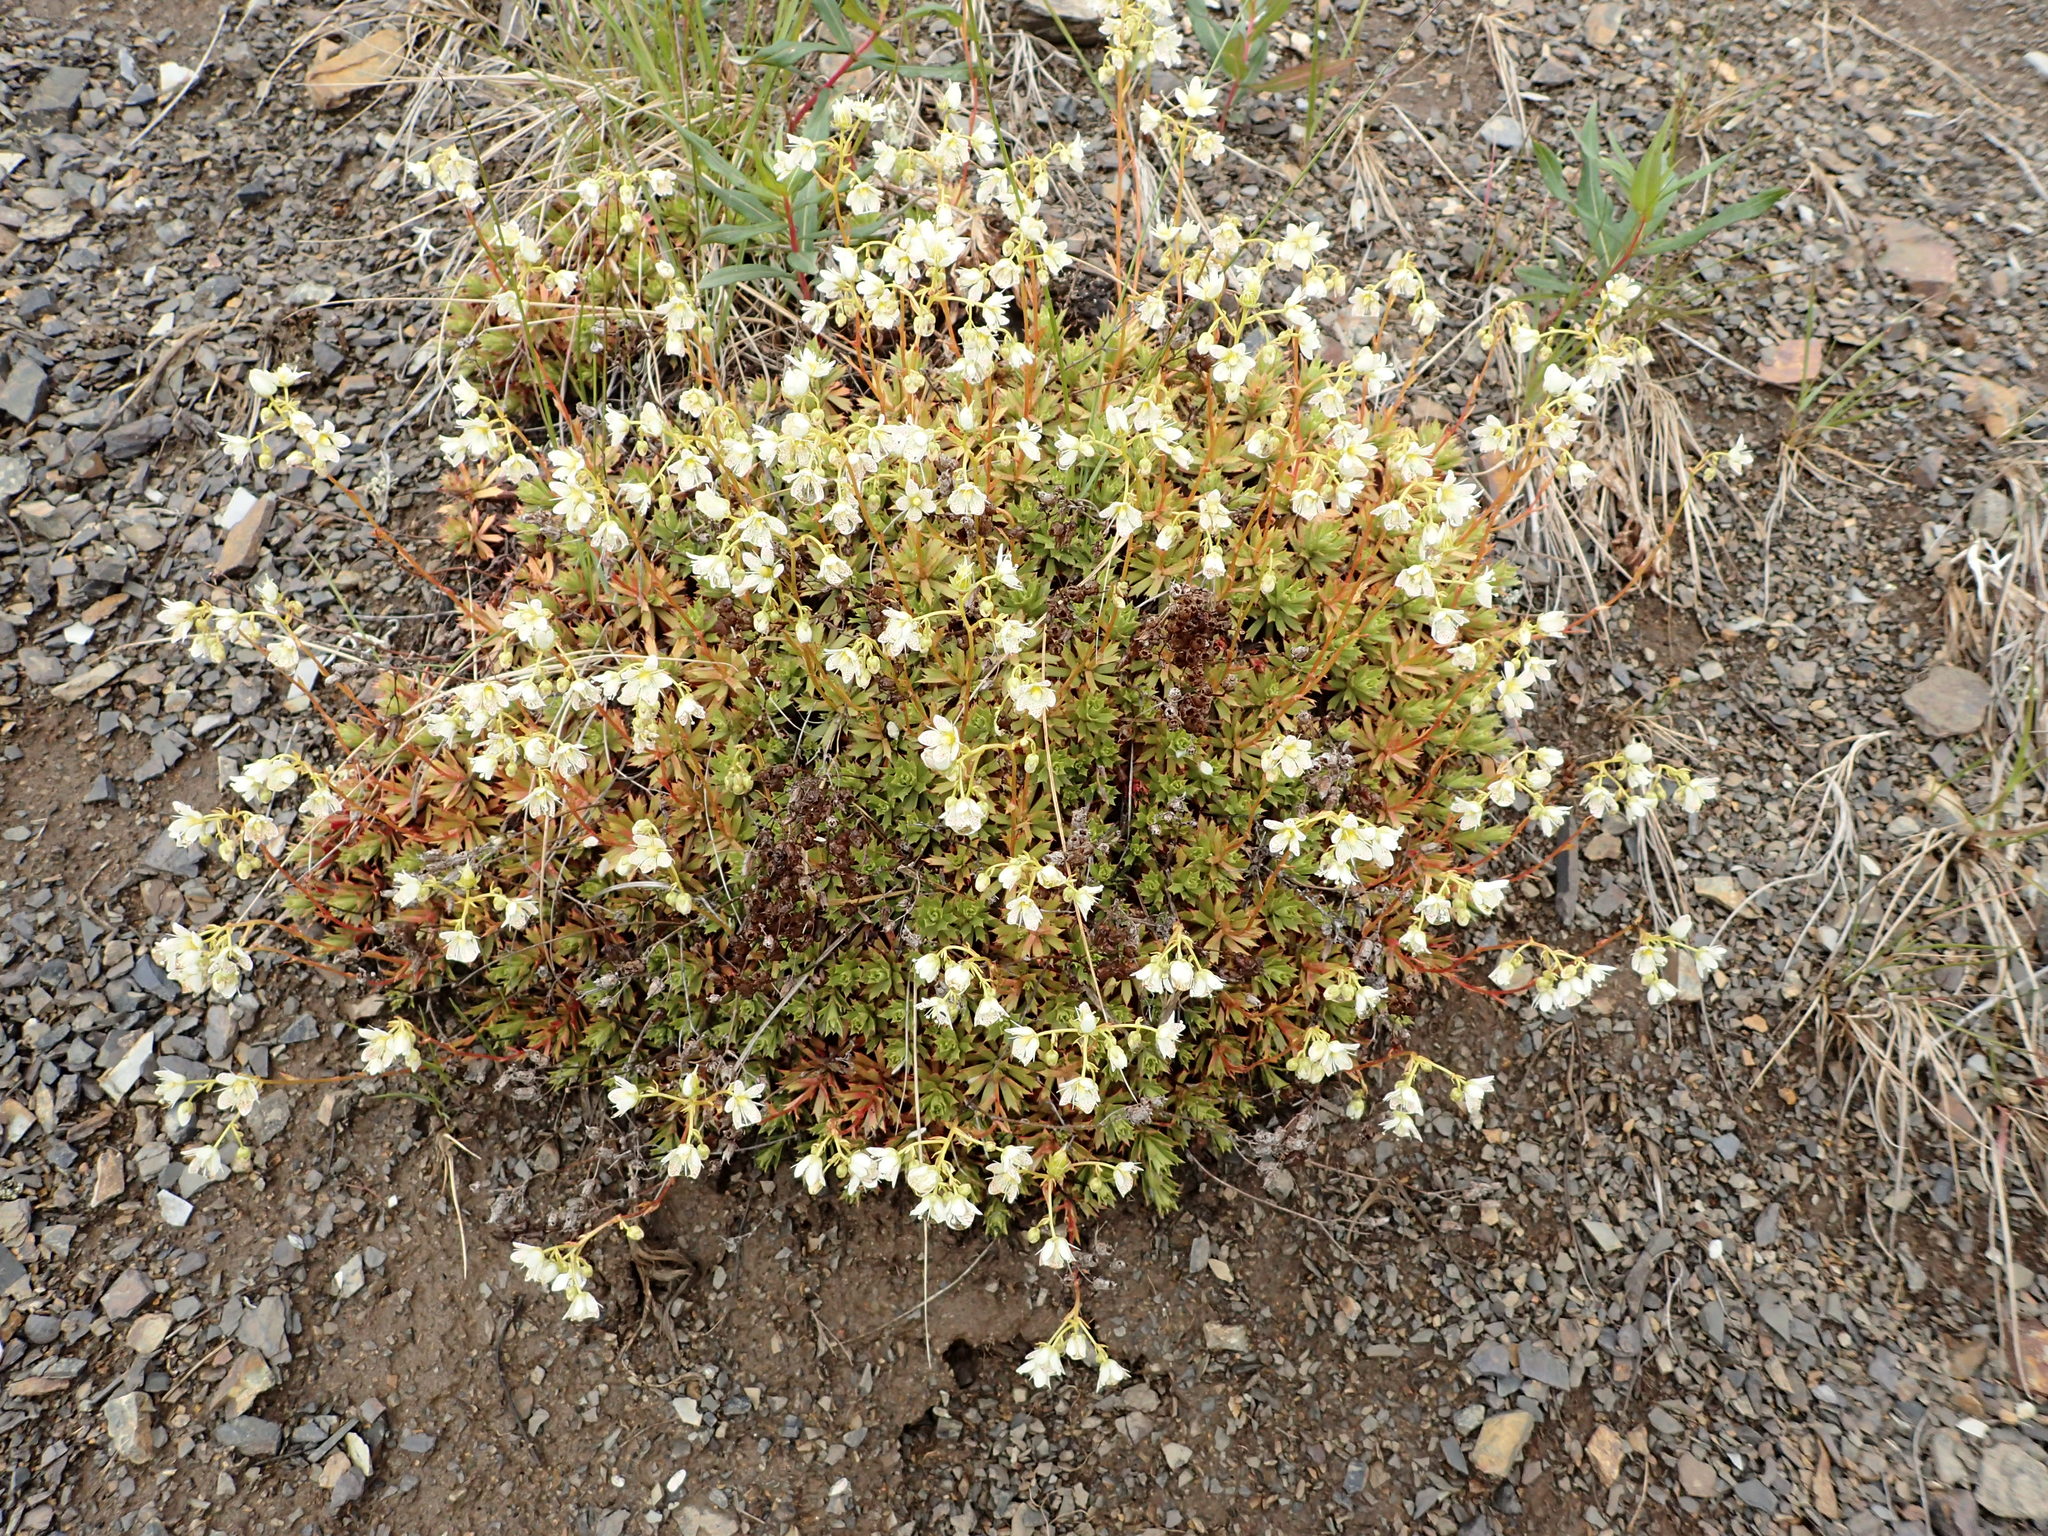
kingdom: Plantae
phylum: Tracheophyta
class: Magnoliopsida
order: Saxifragales
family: Saxifragaceae
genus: Saxifraga
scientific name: Saxifraga tricuspidata
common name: Prickly saxifrage
